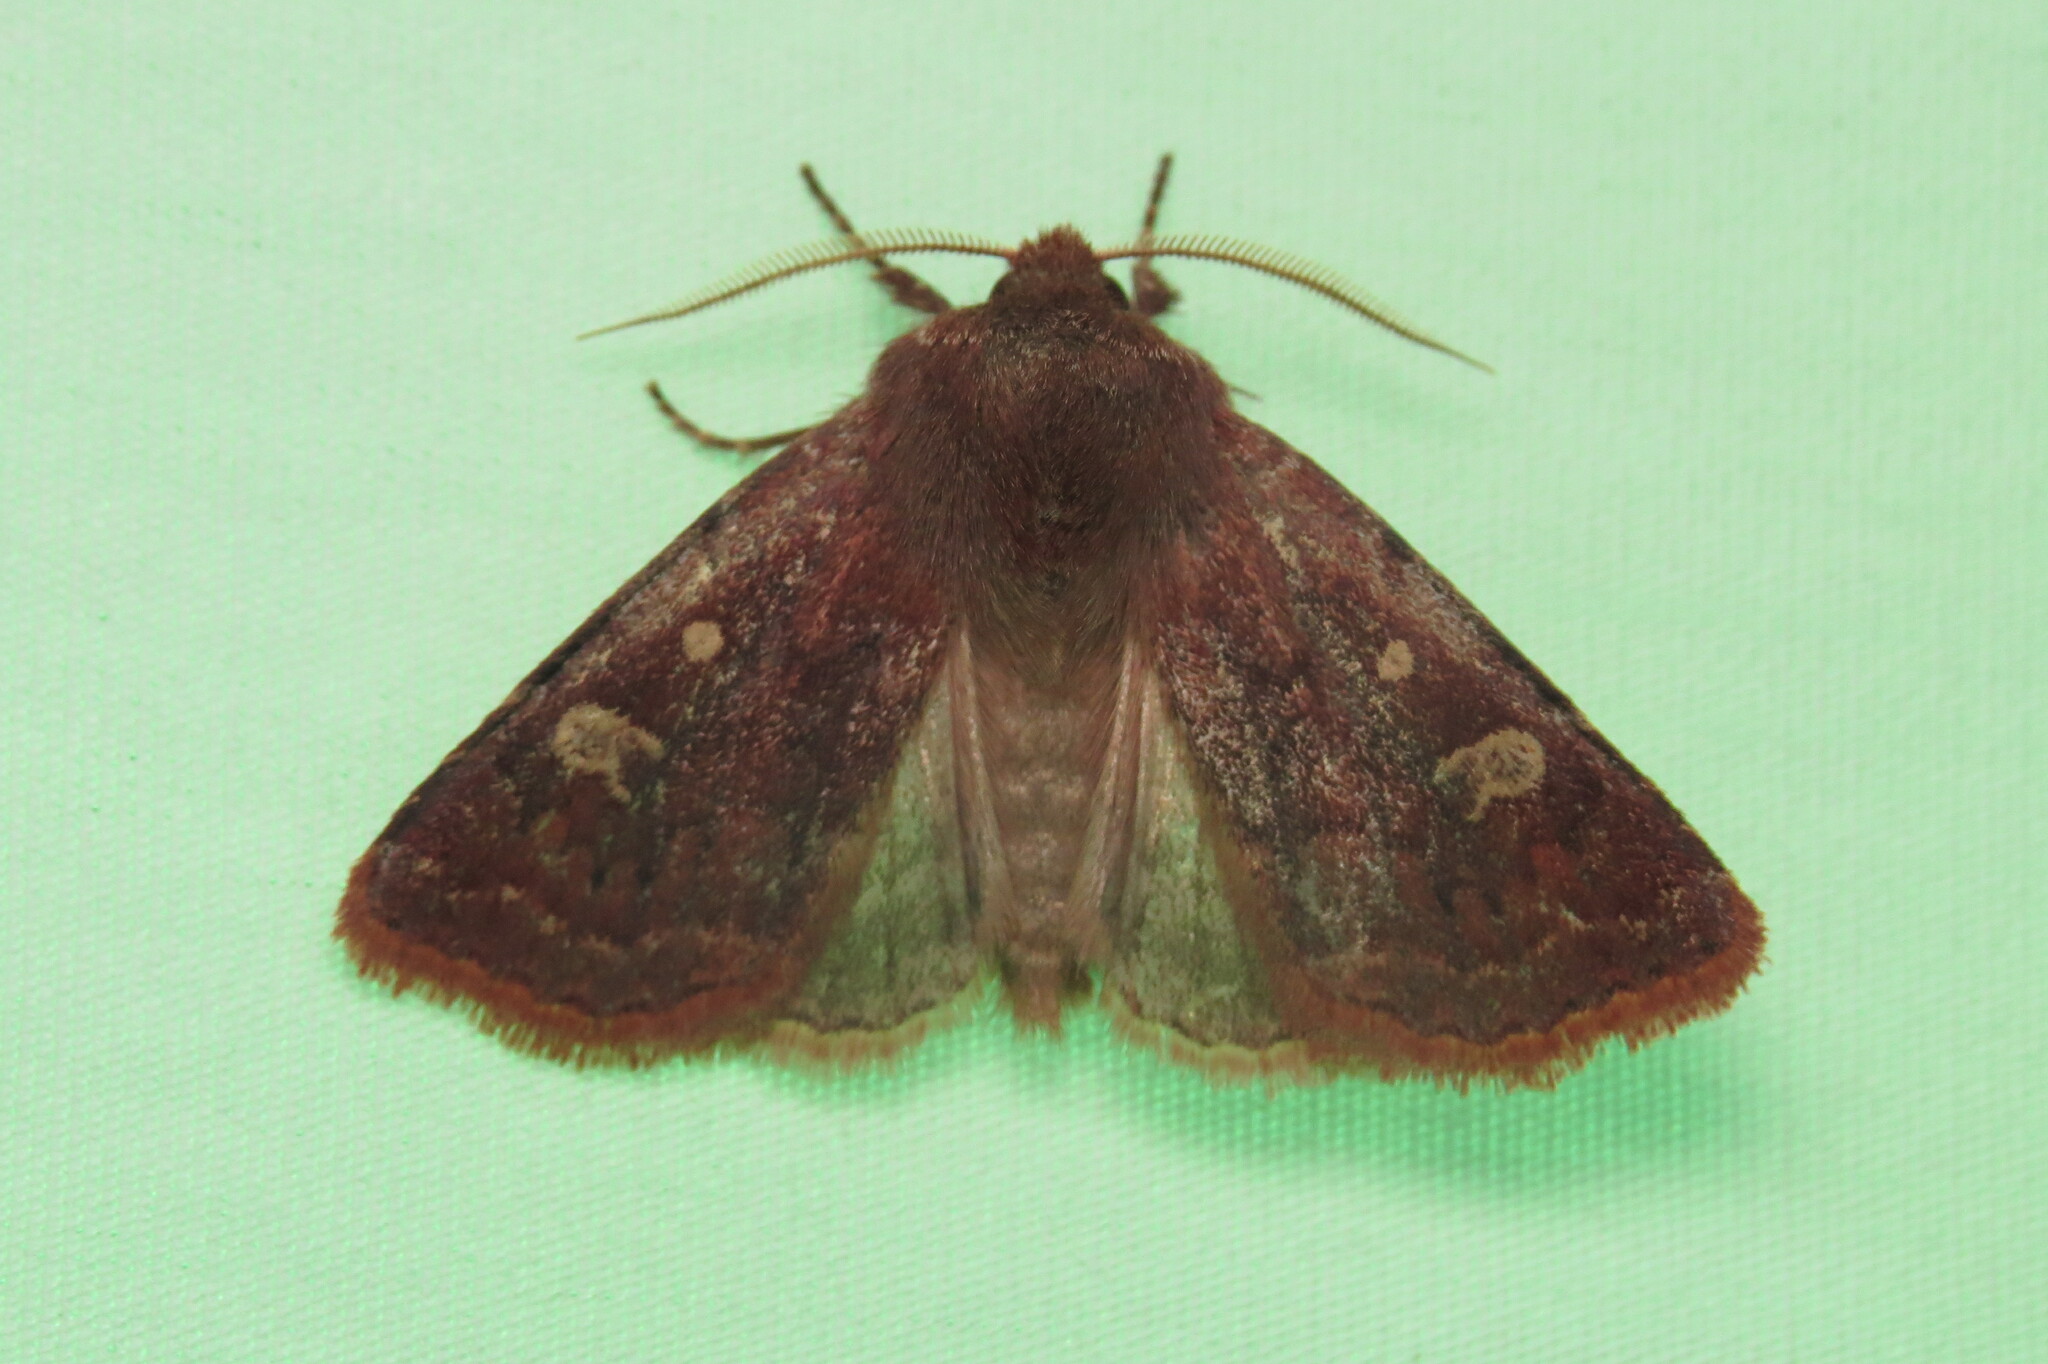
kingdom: Animalia
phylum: Arthropoda
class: Insecta
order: Lepidoptera
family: Noctuidae
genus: Cerastis
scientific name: Cerastis tenebrifera
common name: Reddish speckled dart
